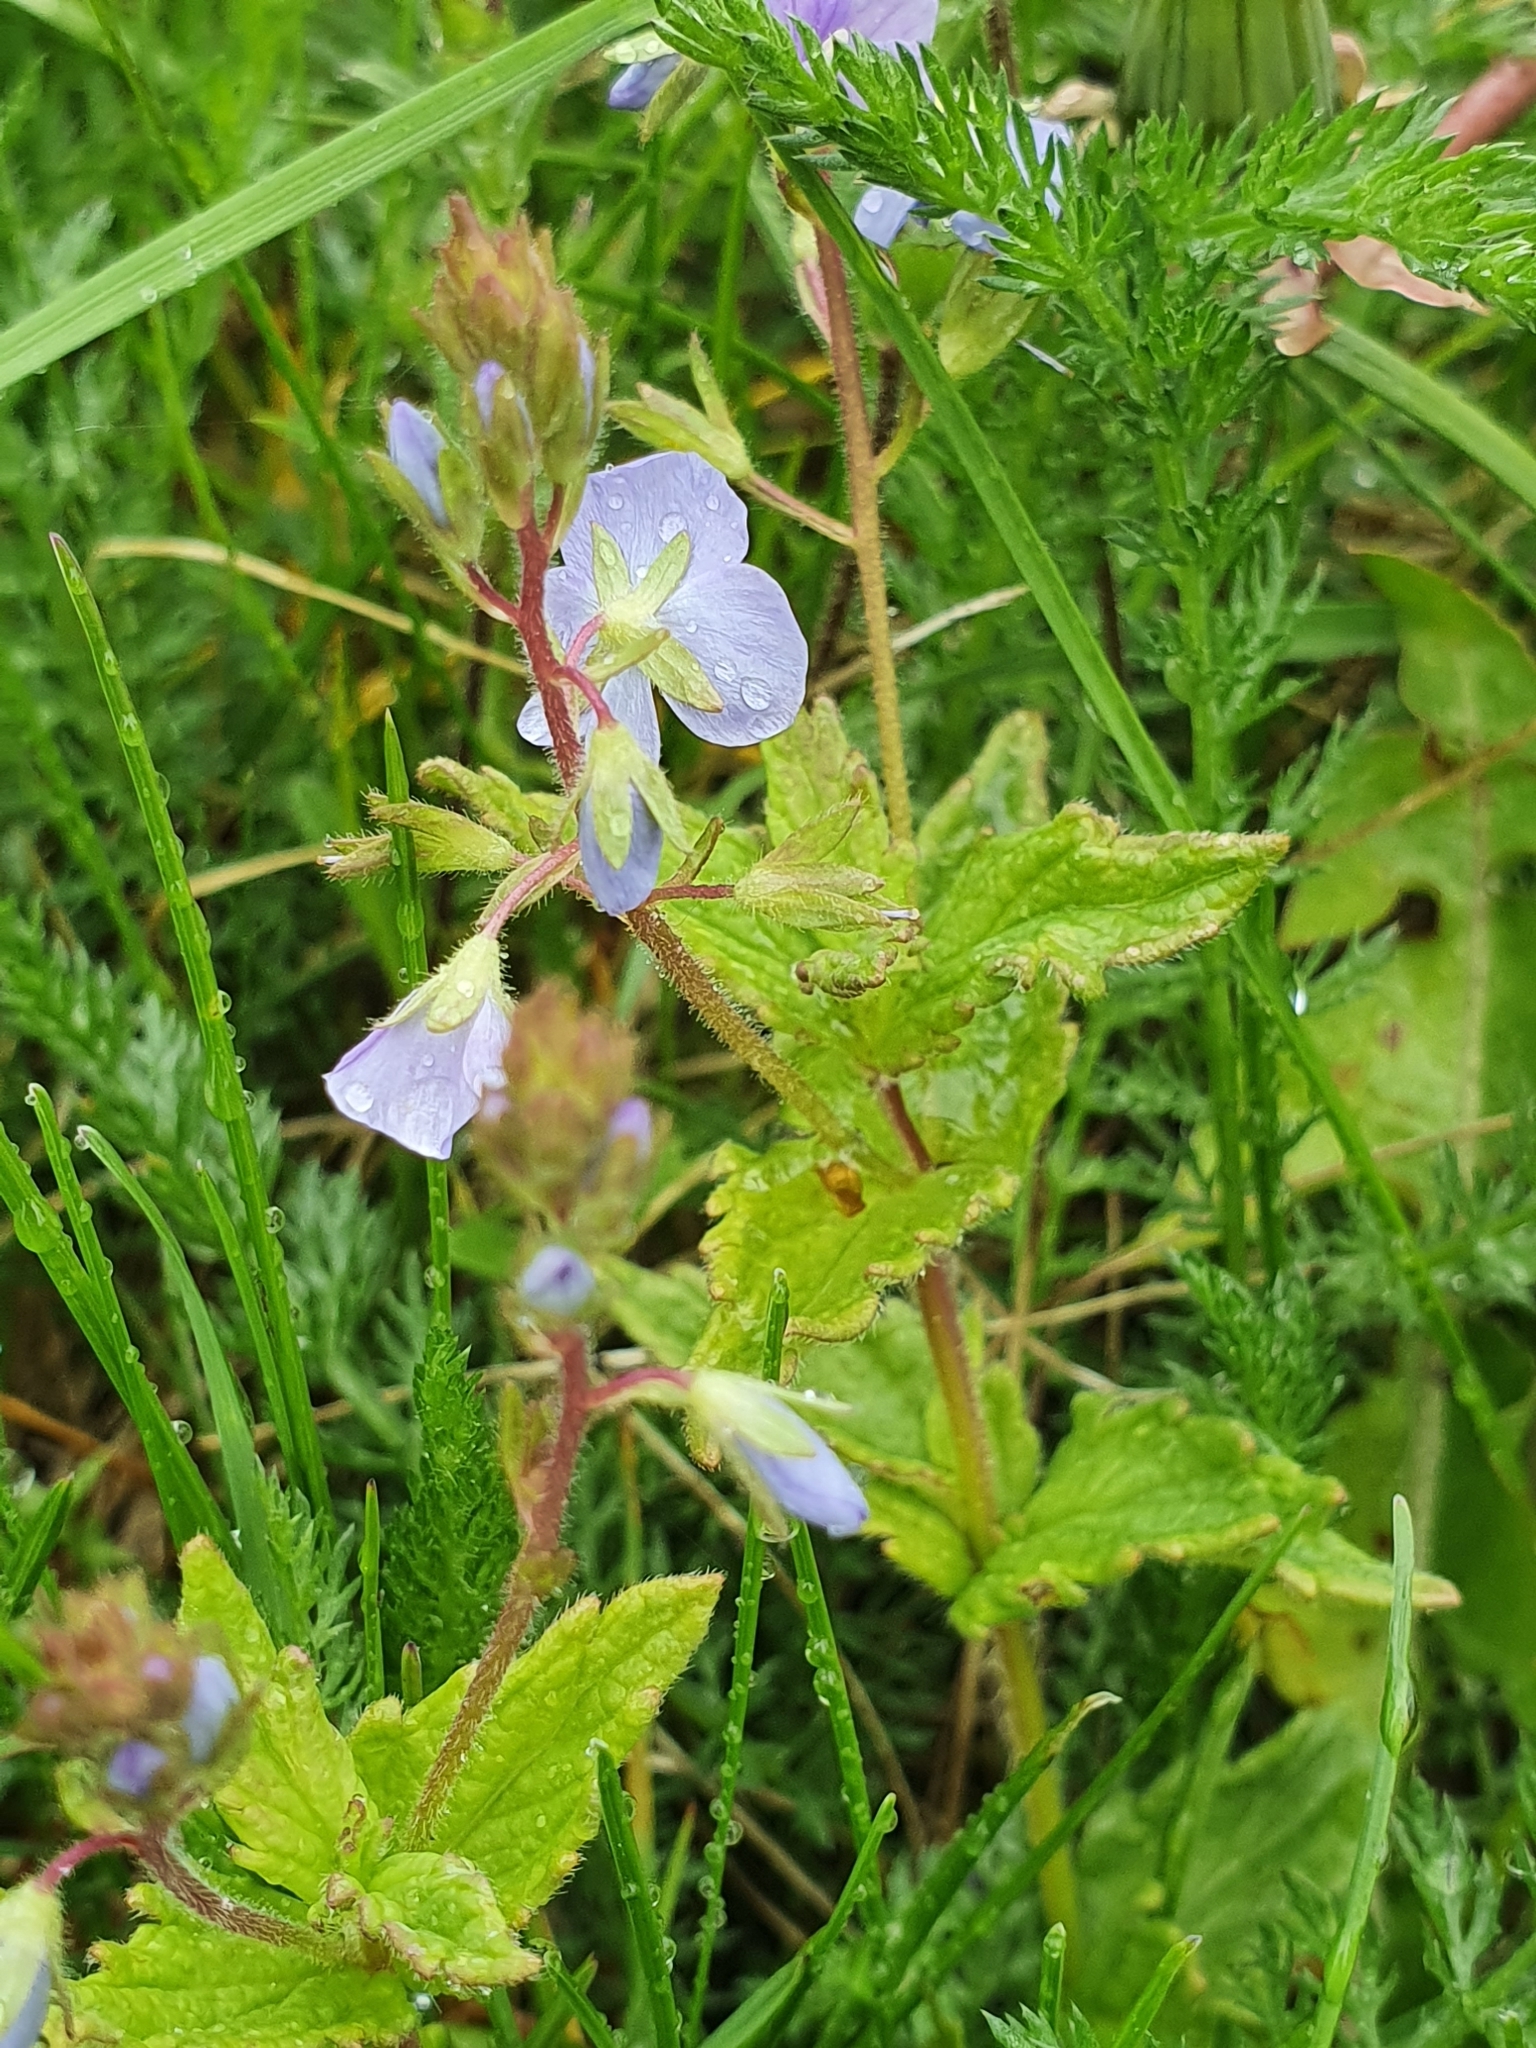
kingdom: Plantae
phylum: Tracheophyta
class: Magnoliopsida
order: Lamiales
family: Plantaginaceae
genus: Veronica
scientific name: Veronica chamaedrys
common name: Germander speedwell
